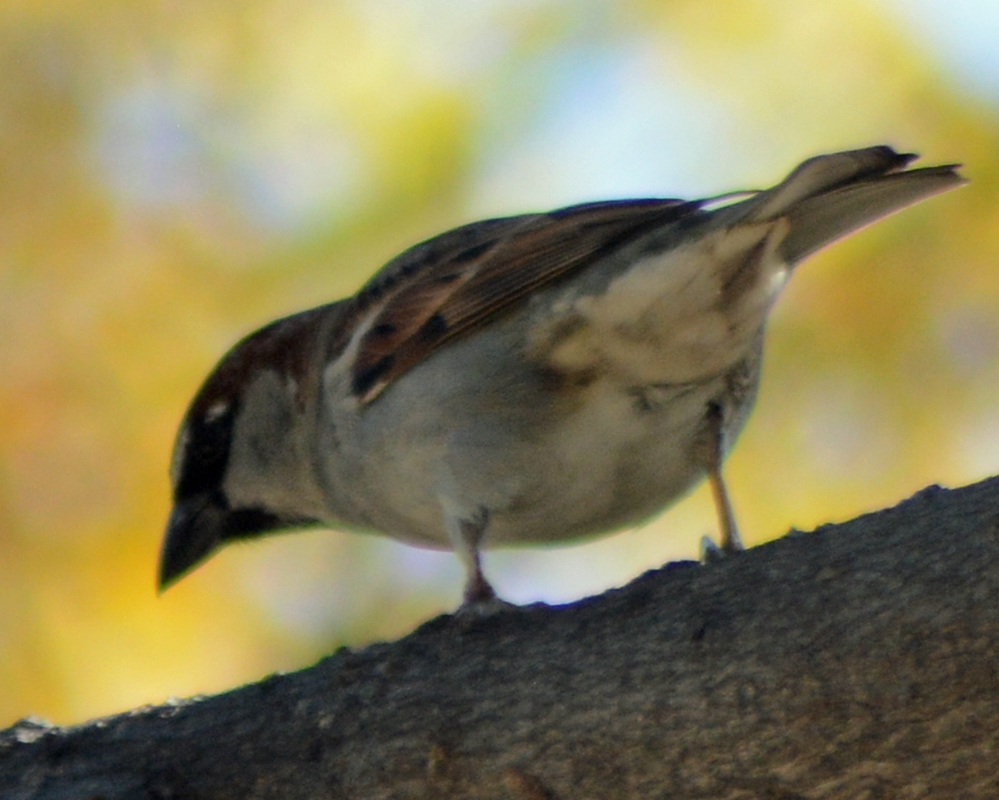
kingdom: Animalia
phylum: Chordata
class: Aves
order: Passeriformes
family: Passeridae
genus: Passer
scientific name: Passer domesticus
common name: House sparrow
